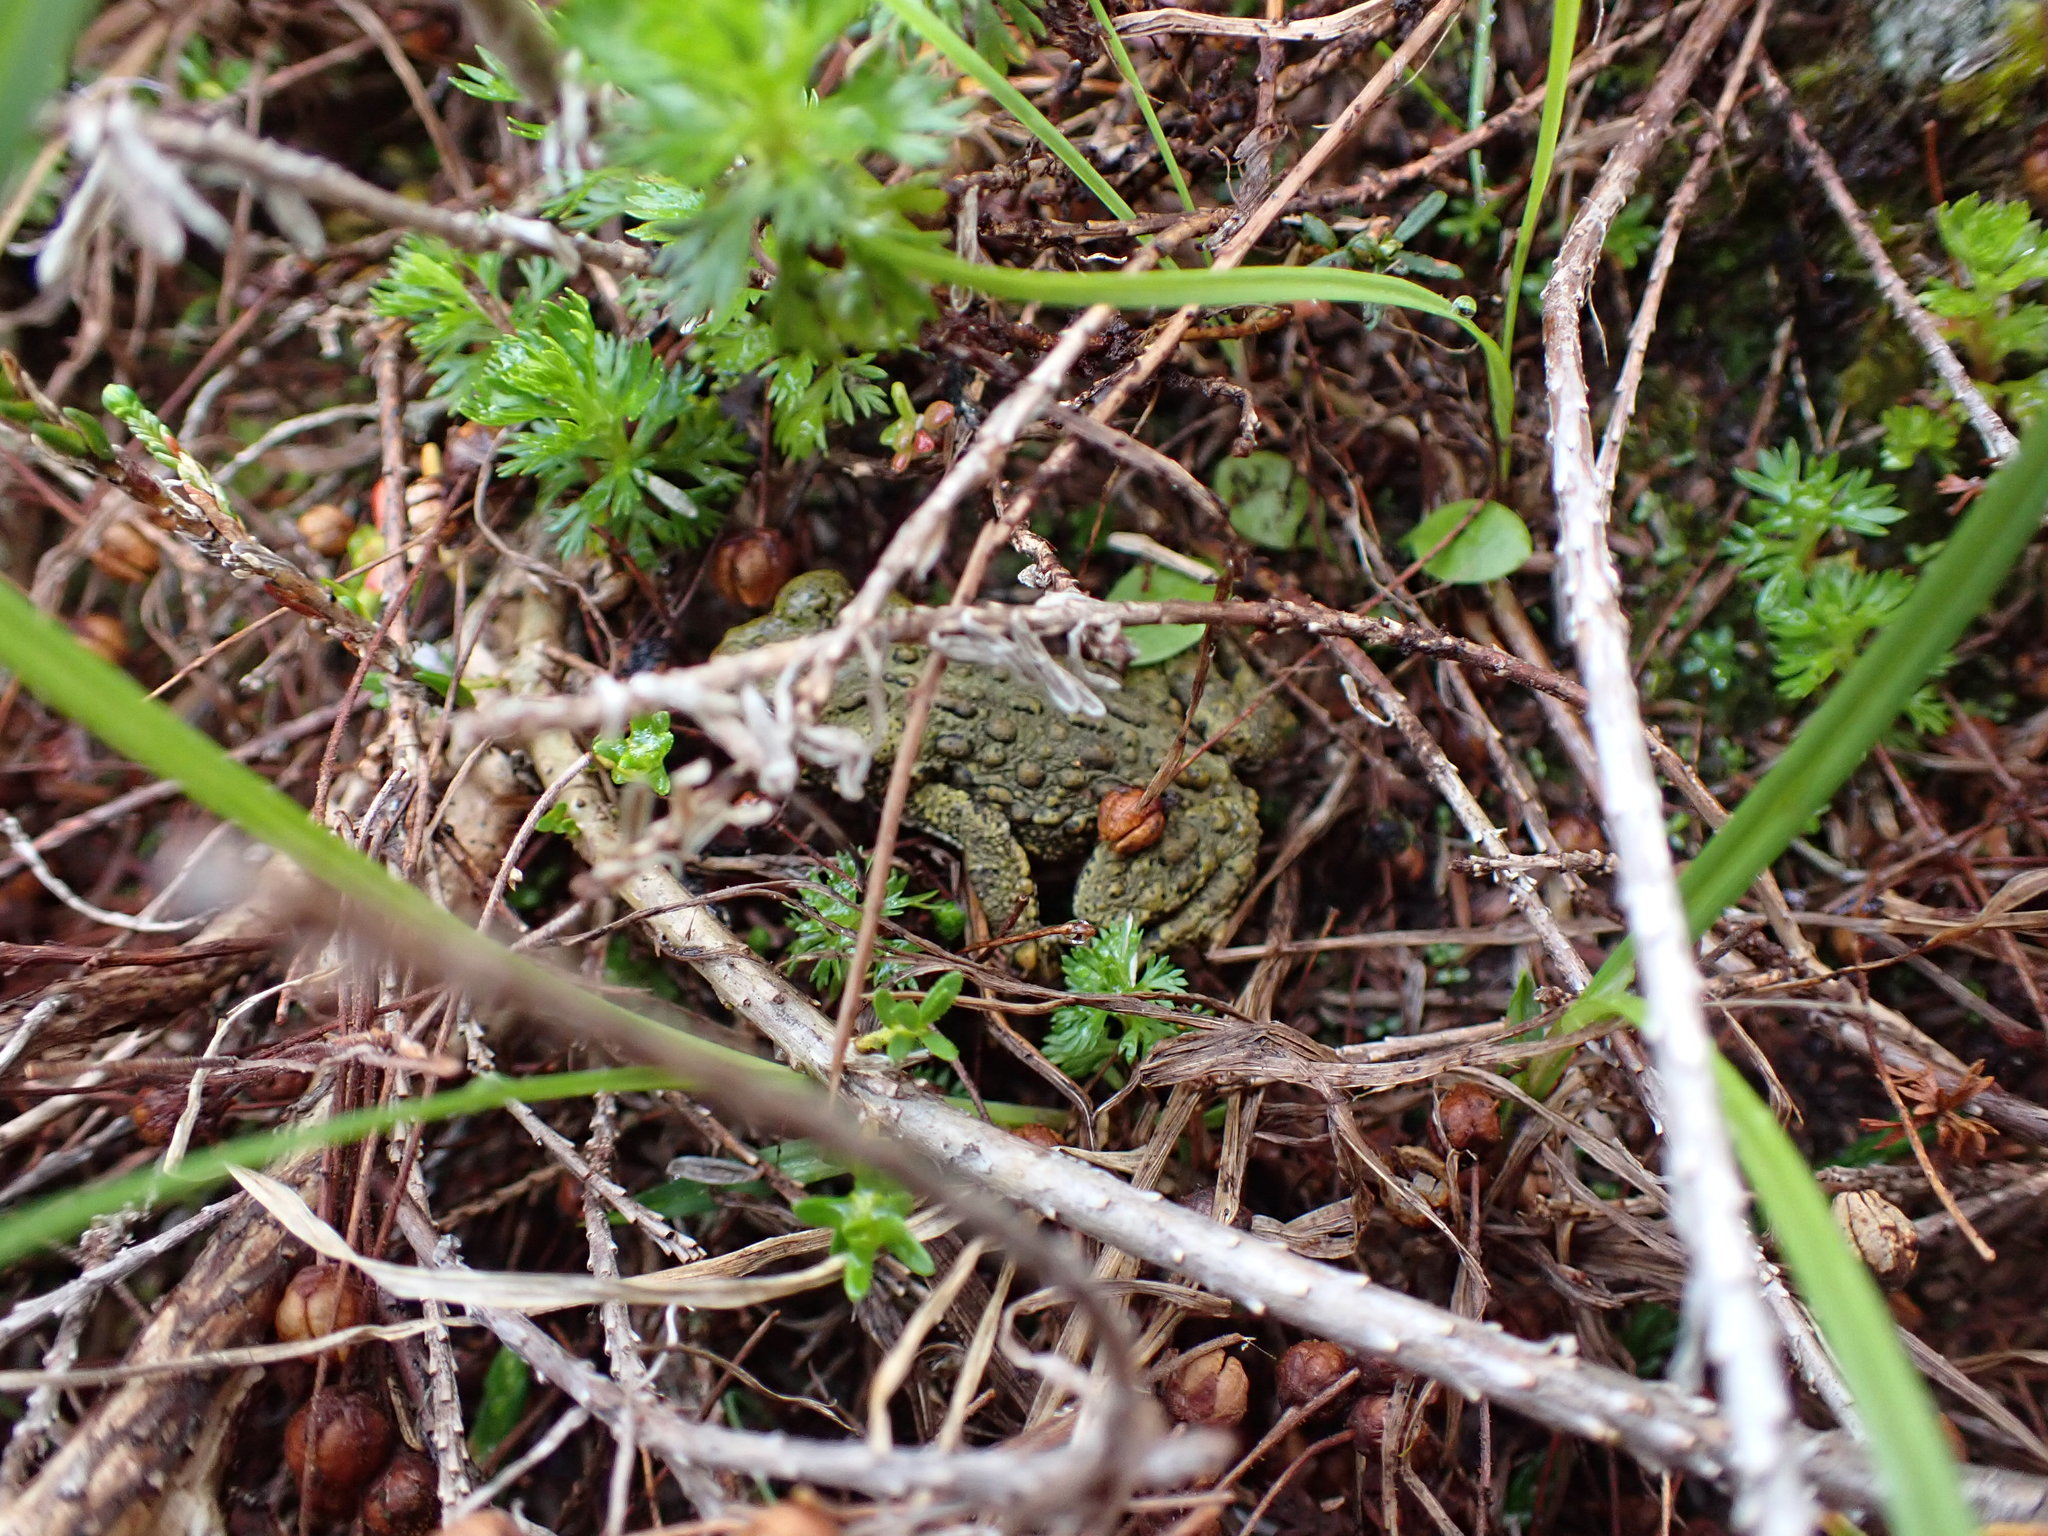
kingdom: Animalia
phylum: Chordata
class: Amphibia
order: Anura
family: Bufonidae
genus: Anaxyrus
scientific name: Anaxyrus boreas
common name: Western toad
